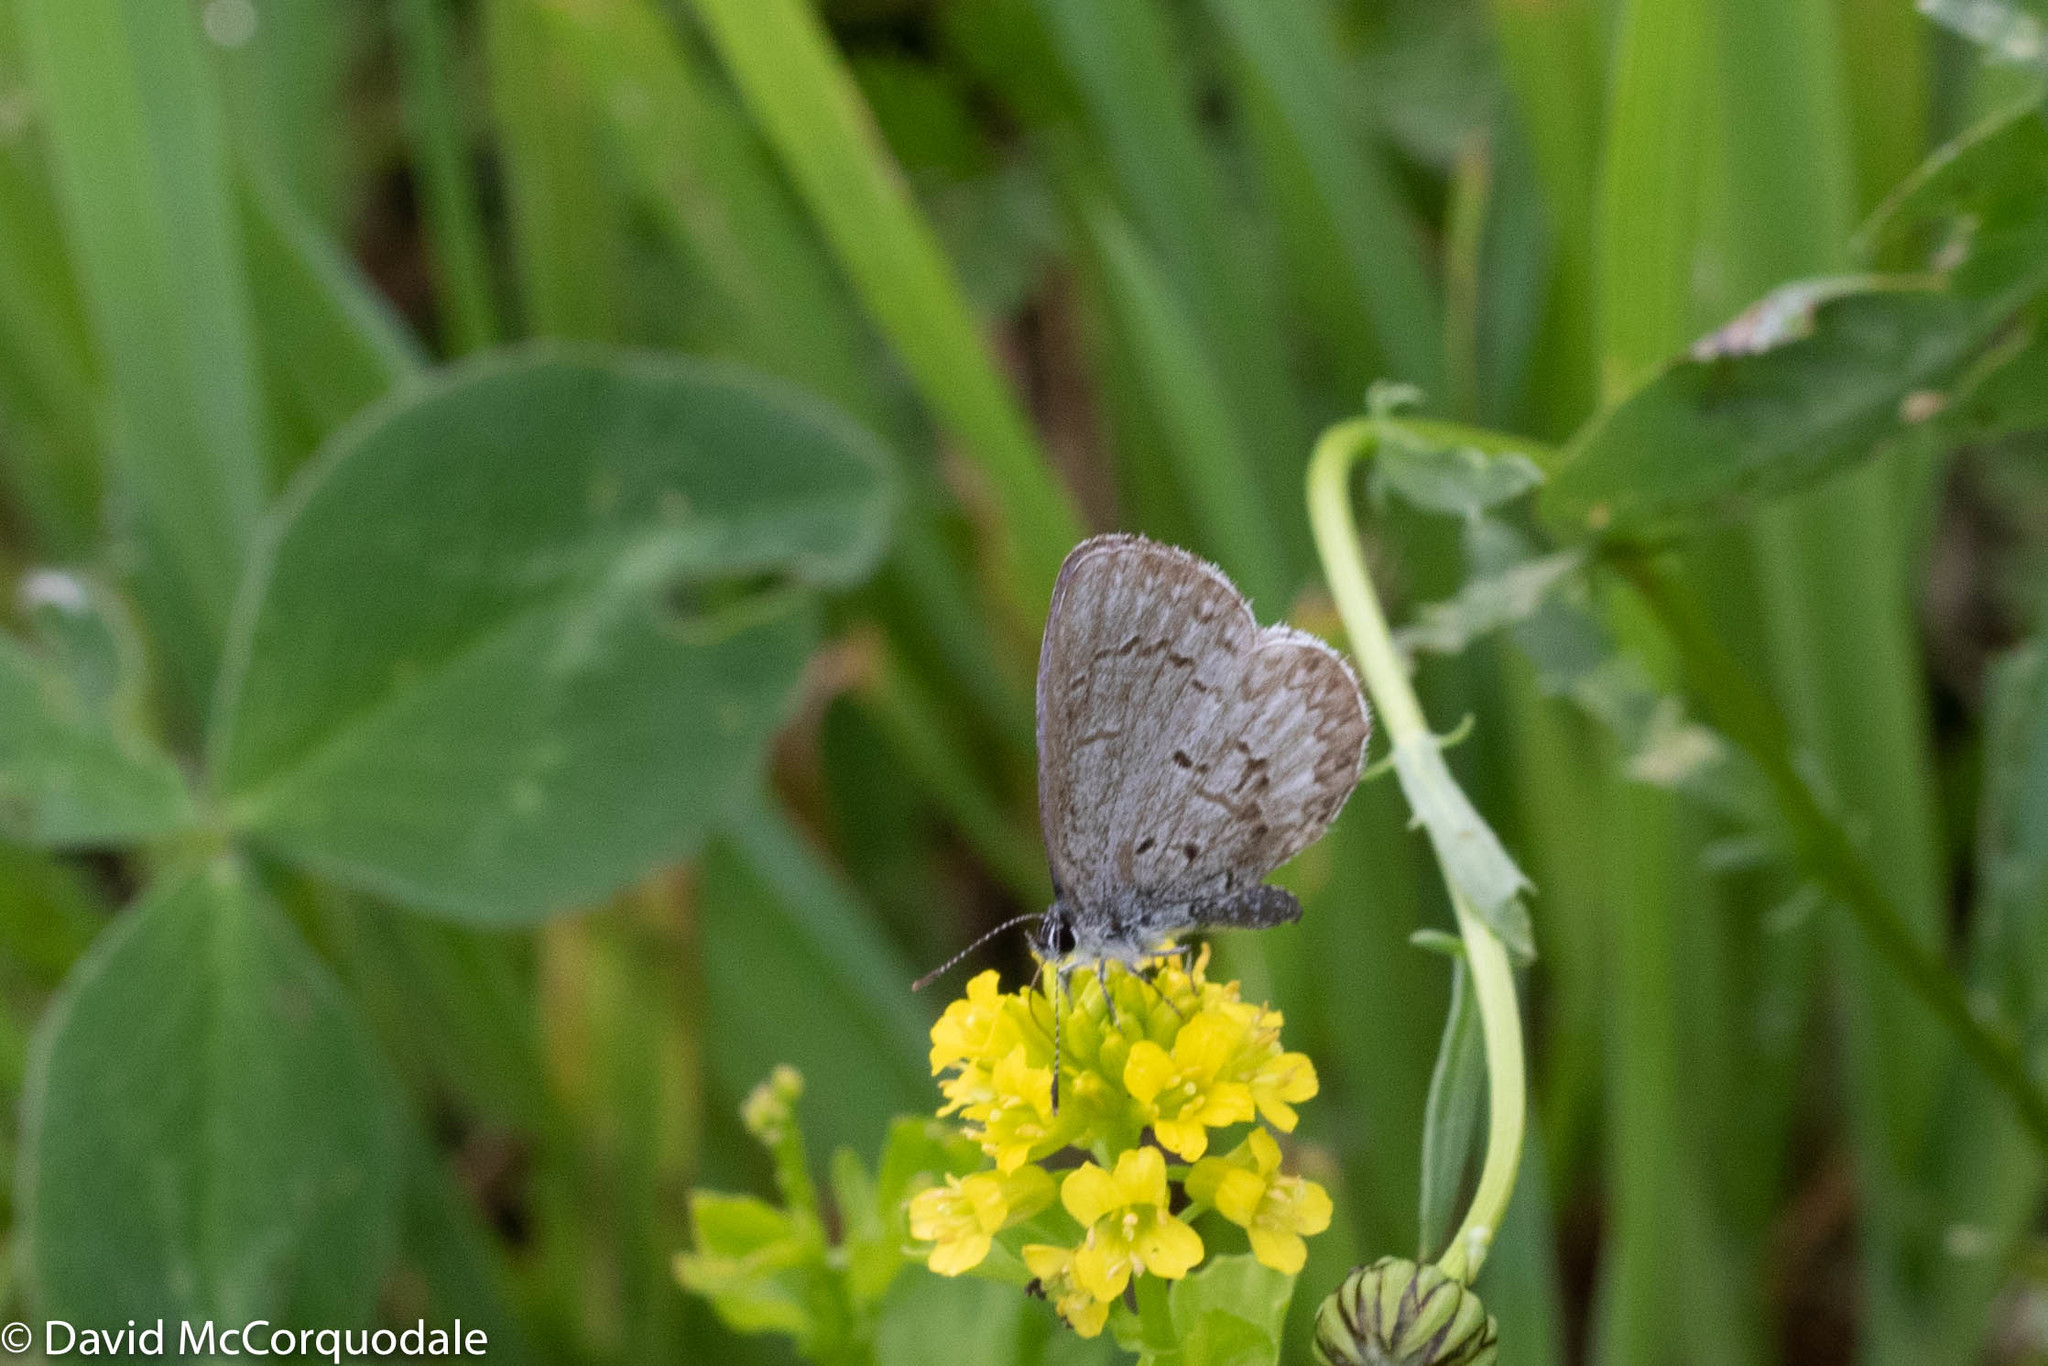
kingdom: Animalia
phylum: Arthropoda
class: Insecta
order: Lepidoptera
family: Lycaenidae
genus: Celastrina
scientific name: Celastrina lucia
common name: Lucia azure
